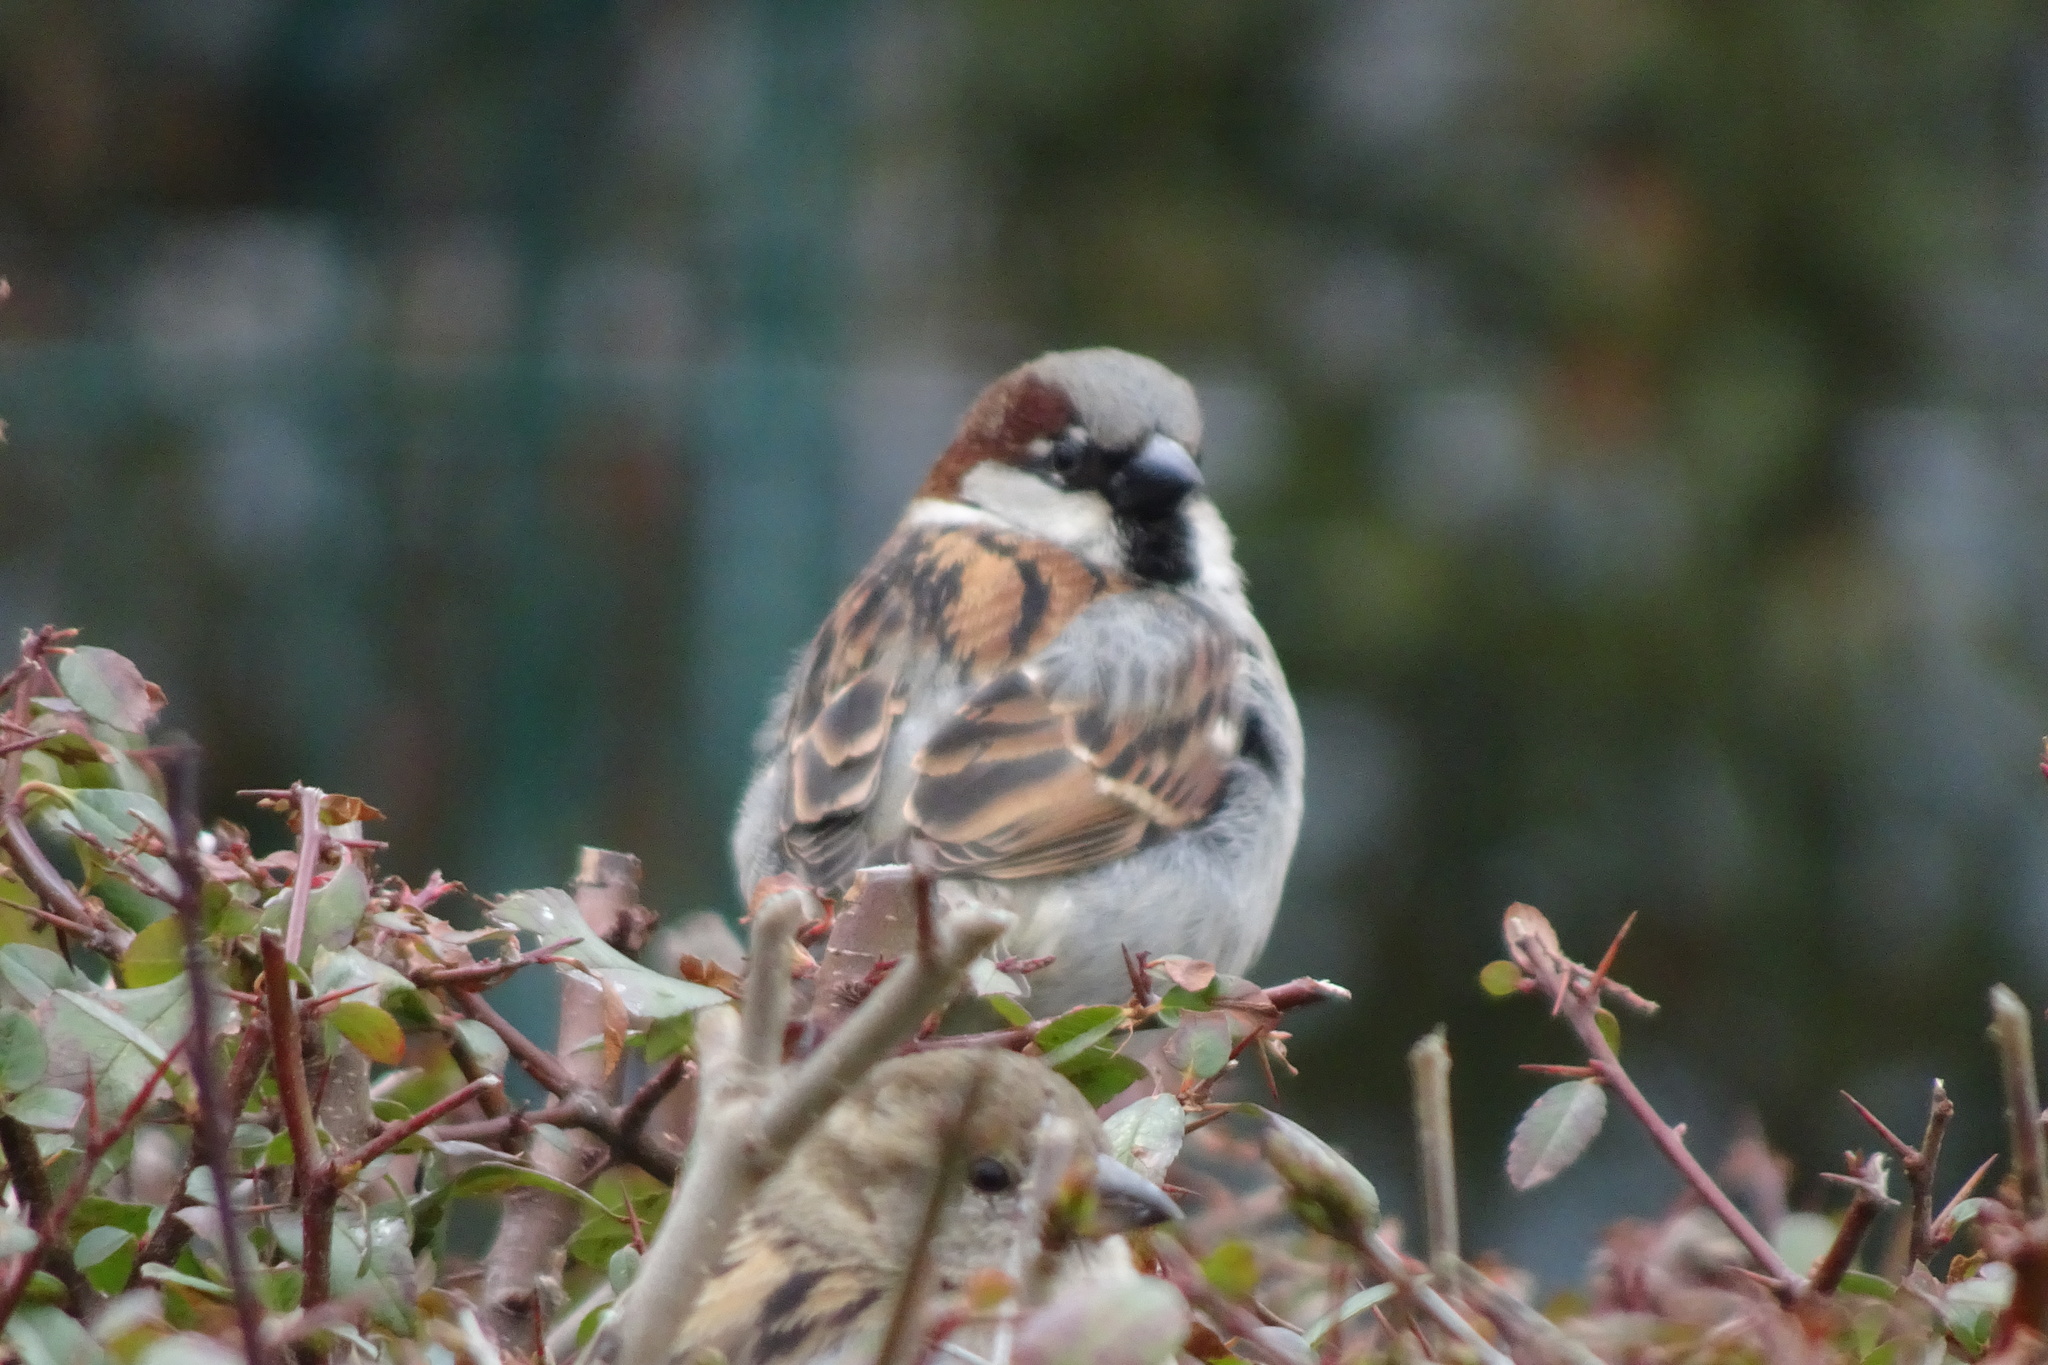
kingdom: Animalia
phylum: Chordata
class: Aves
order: Passeriformes
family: Passeridae
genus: Passer
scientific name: Passer domesticus
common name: House sparrow
